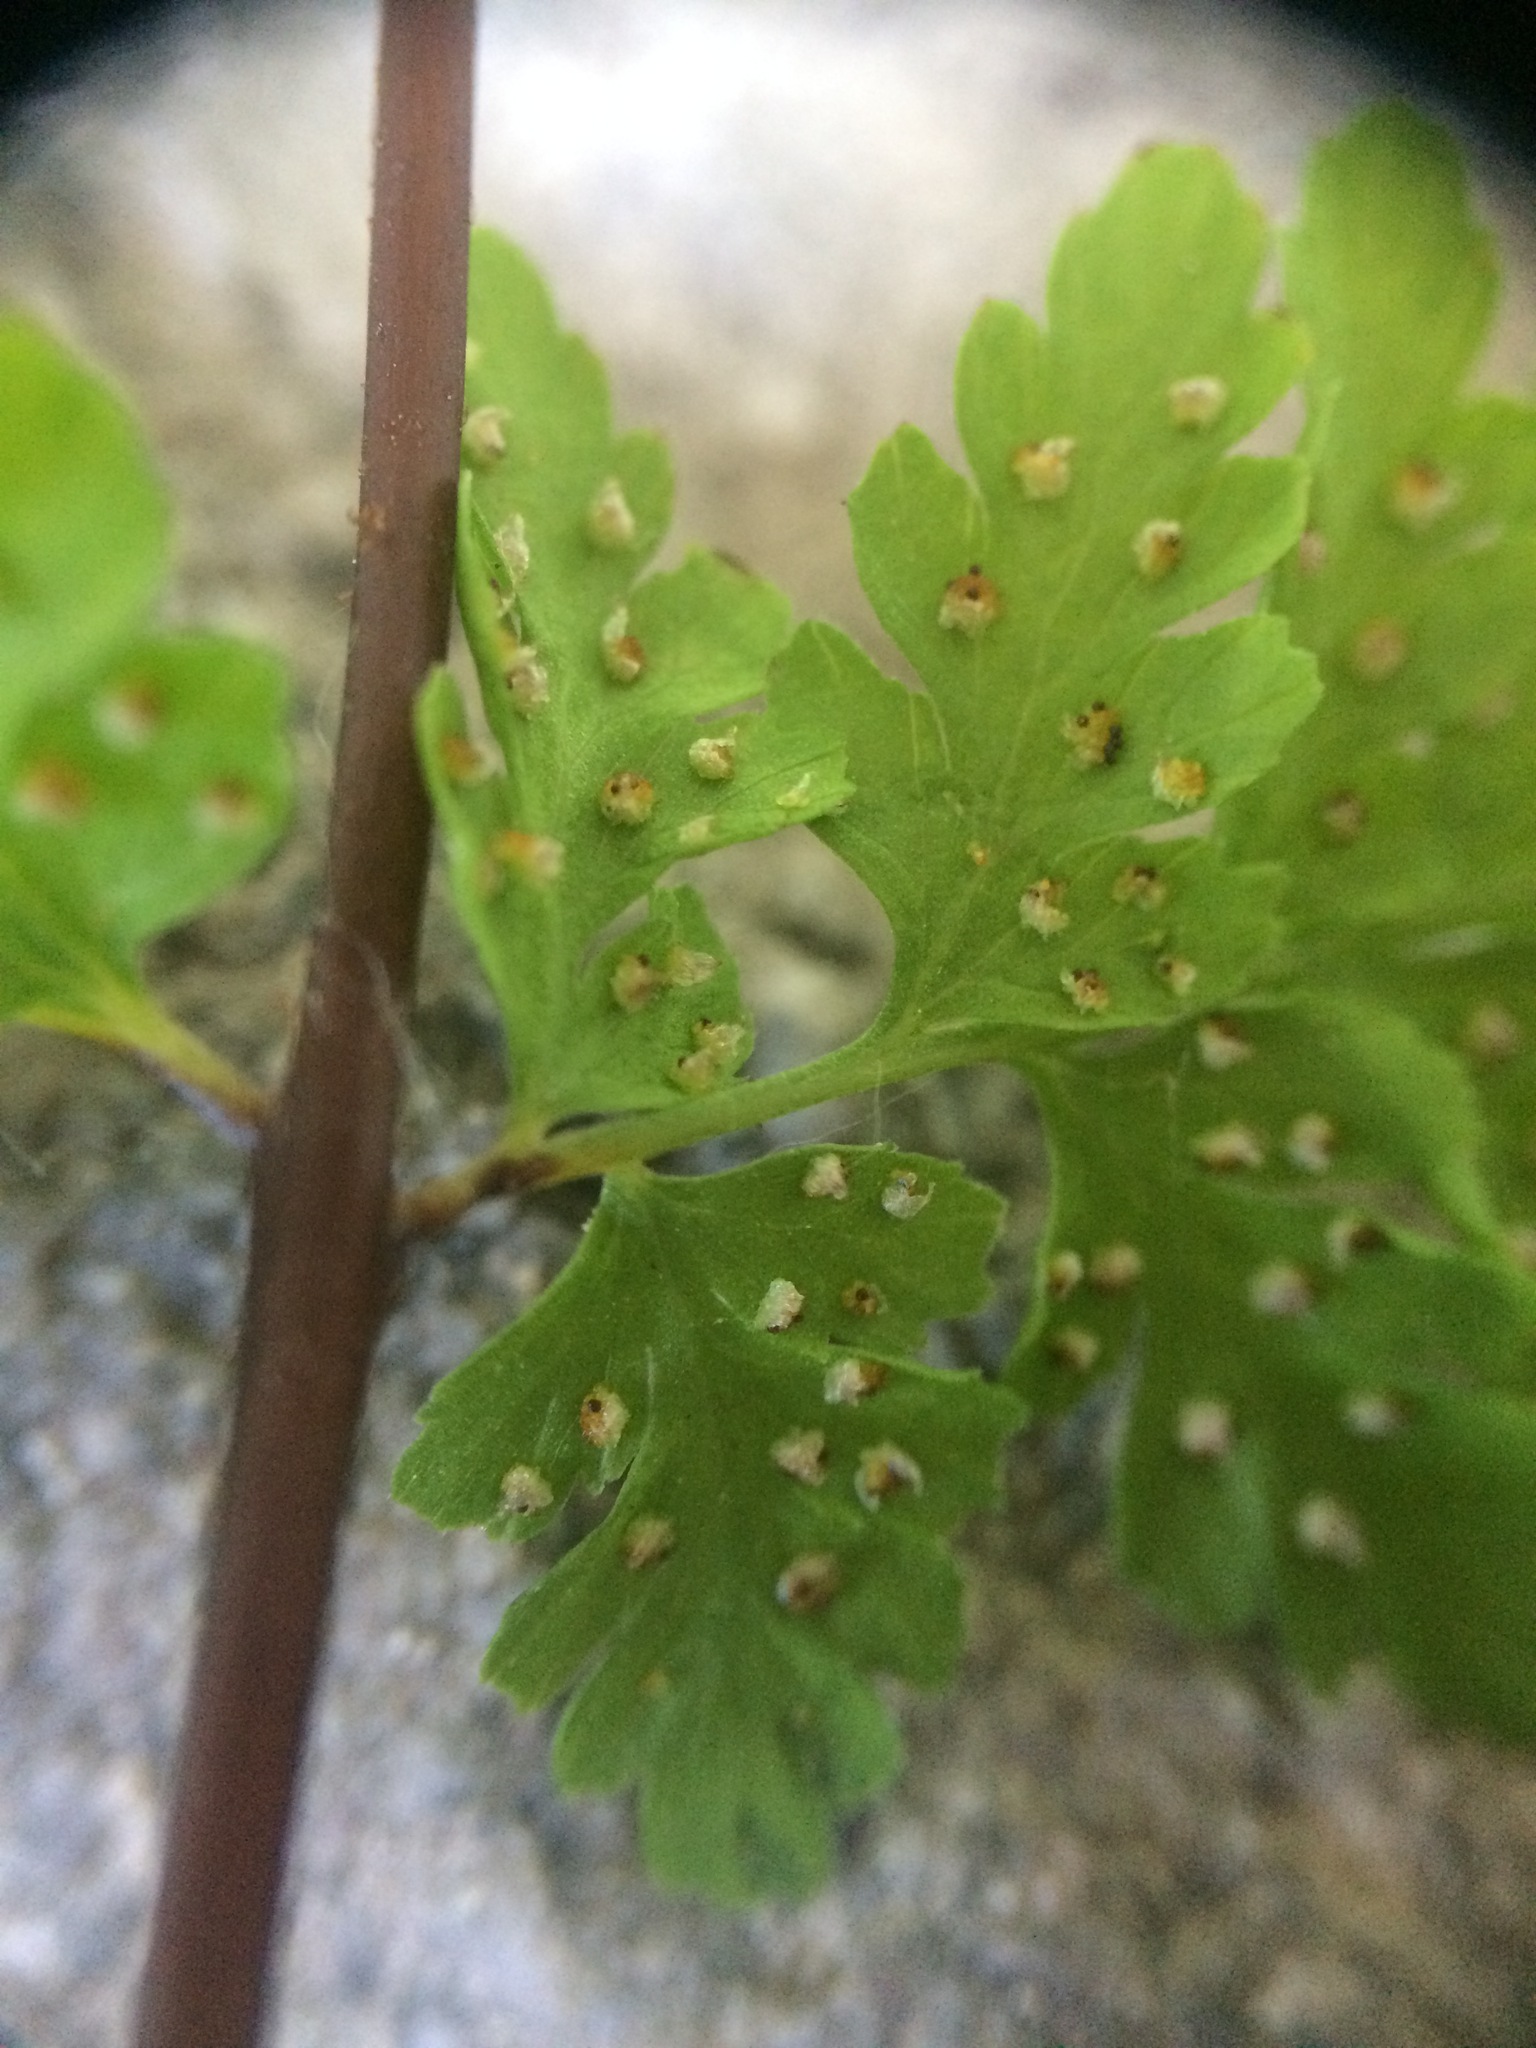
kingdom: Plantae
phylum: Tracheophyta
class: Polypodiopsida
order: Polypodiales
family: Cystopteridaceae
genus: Cystopteris
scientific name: Cystopteris laurentiana
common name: Blasdell's laurentian bladder fern
